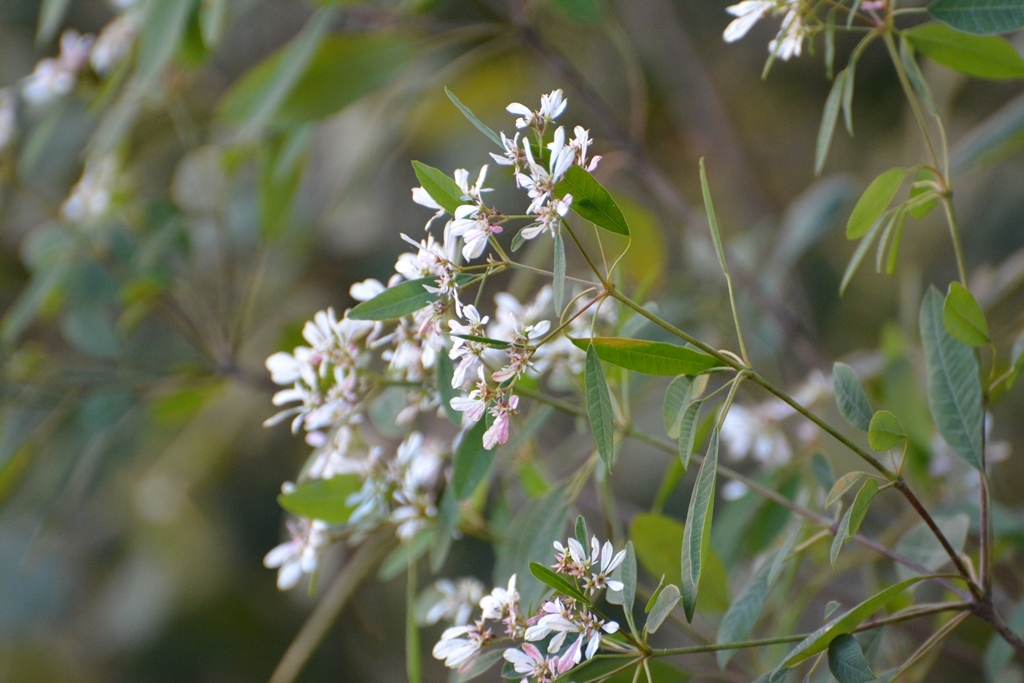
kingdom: Plantae
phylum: Tracheophyta
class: Magnoliopsida
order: Malpighiales
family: Euphorbiaceae
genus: Euphorbia
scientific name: Euphorbia leucocephala
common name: Pascuita
